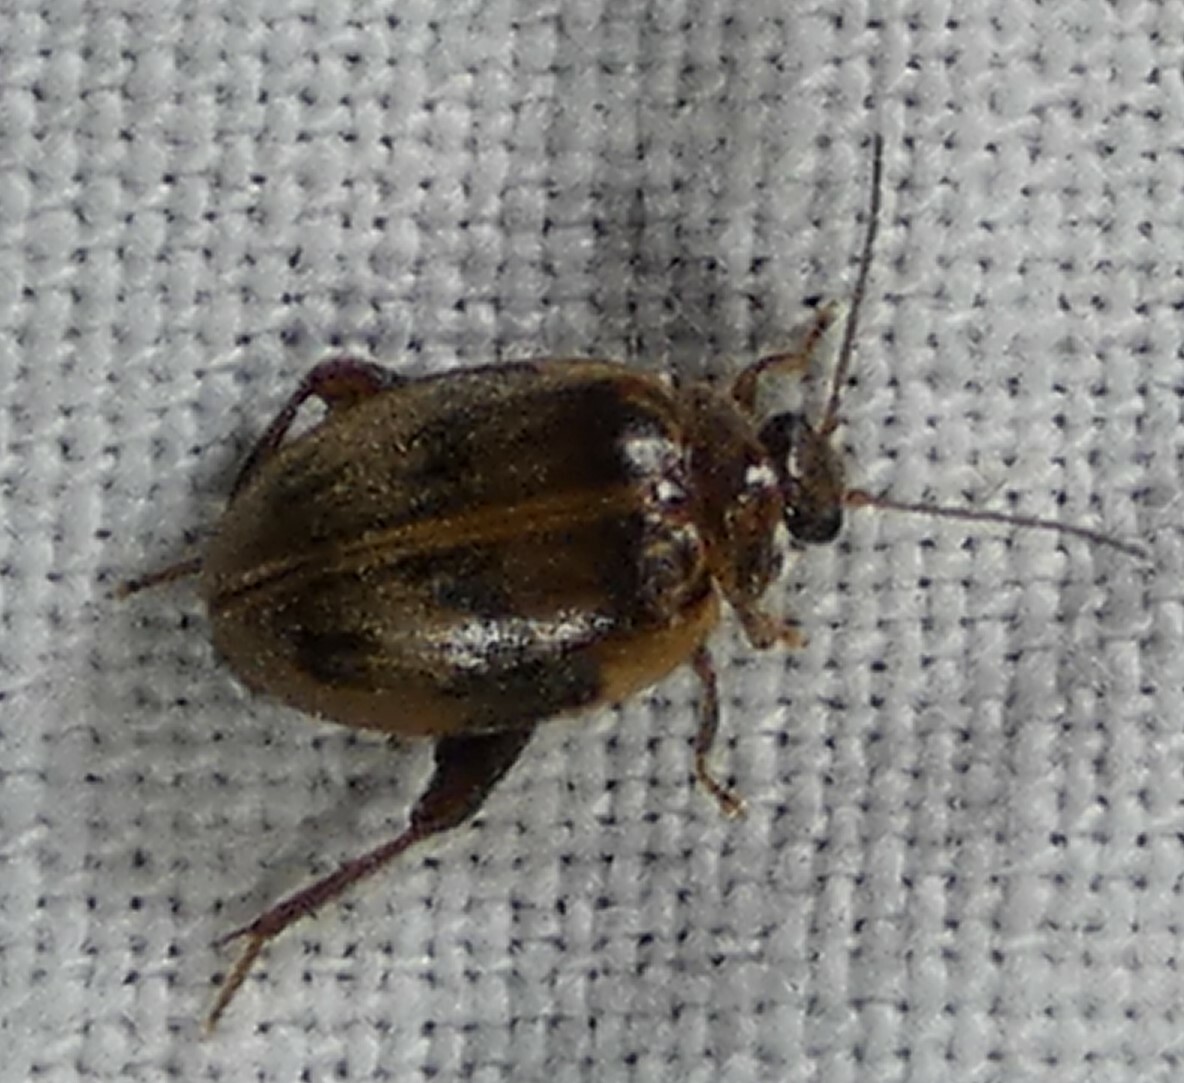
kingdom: Animalia
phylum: Arthropoda
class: Insecta
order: Coleoptera
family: Scirtidae
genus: Ora
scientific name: Ora texana
